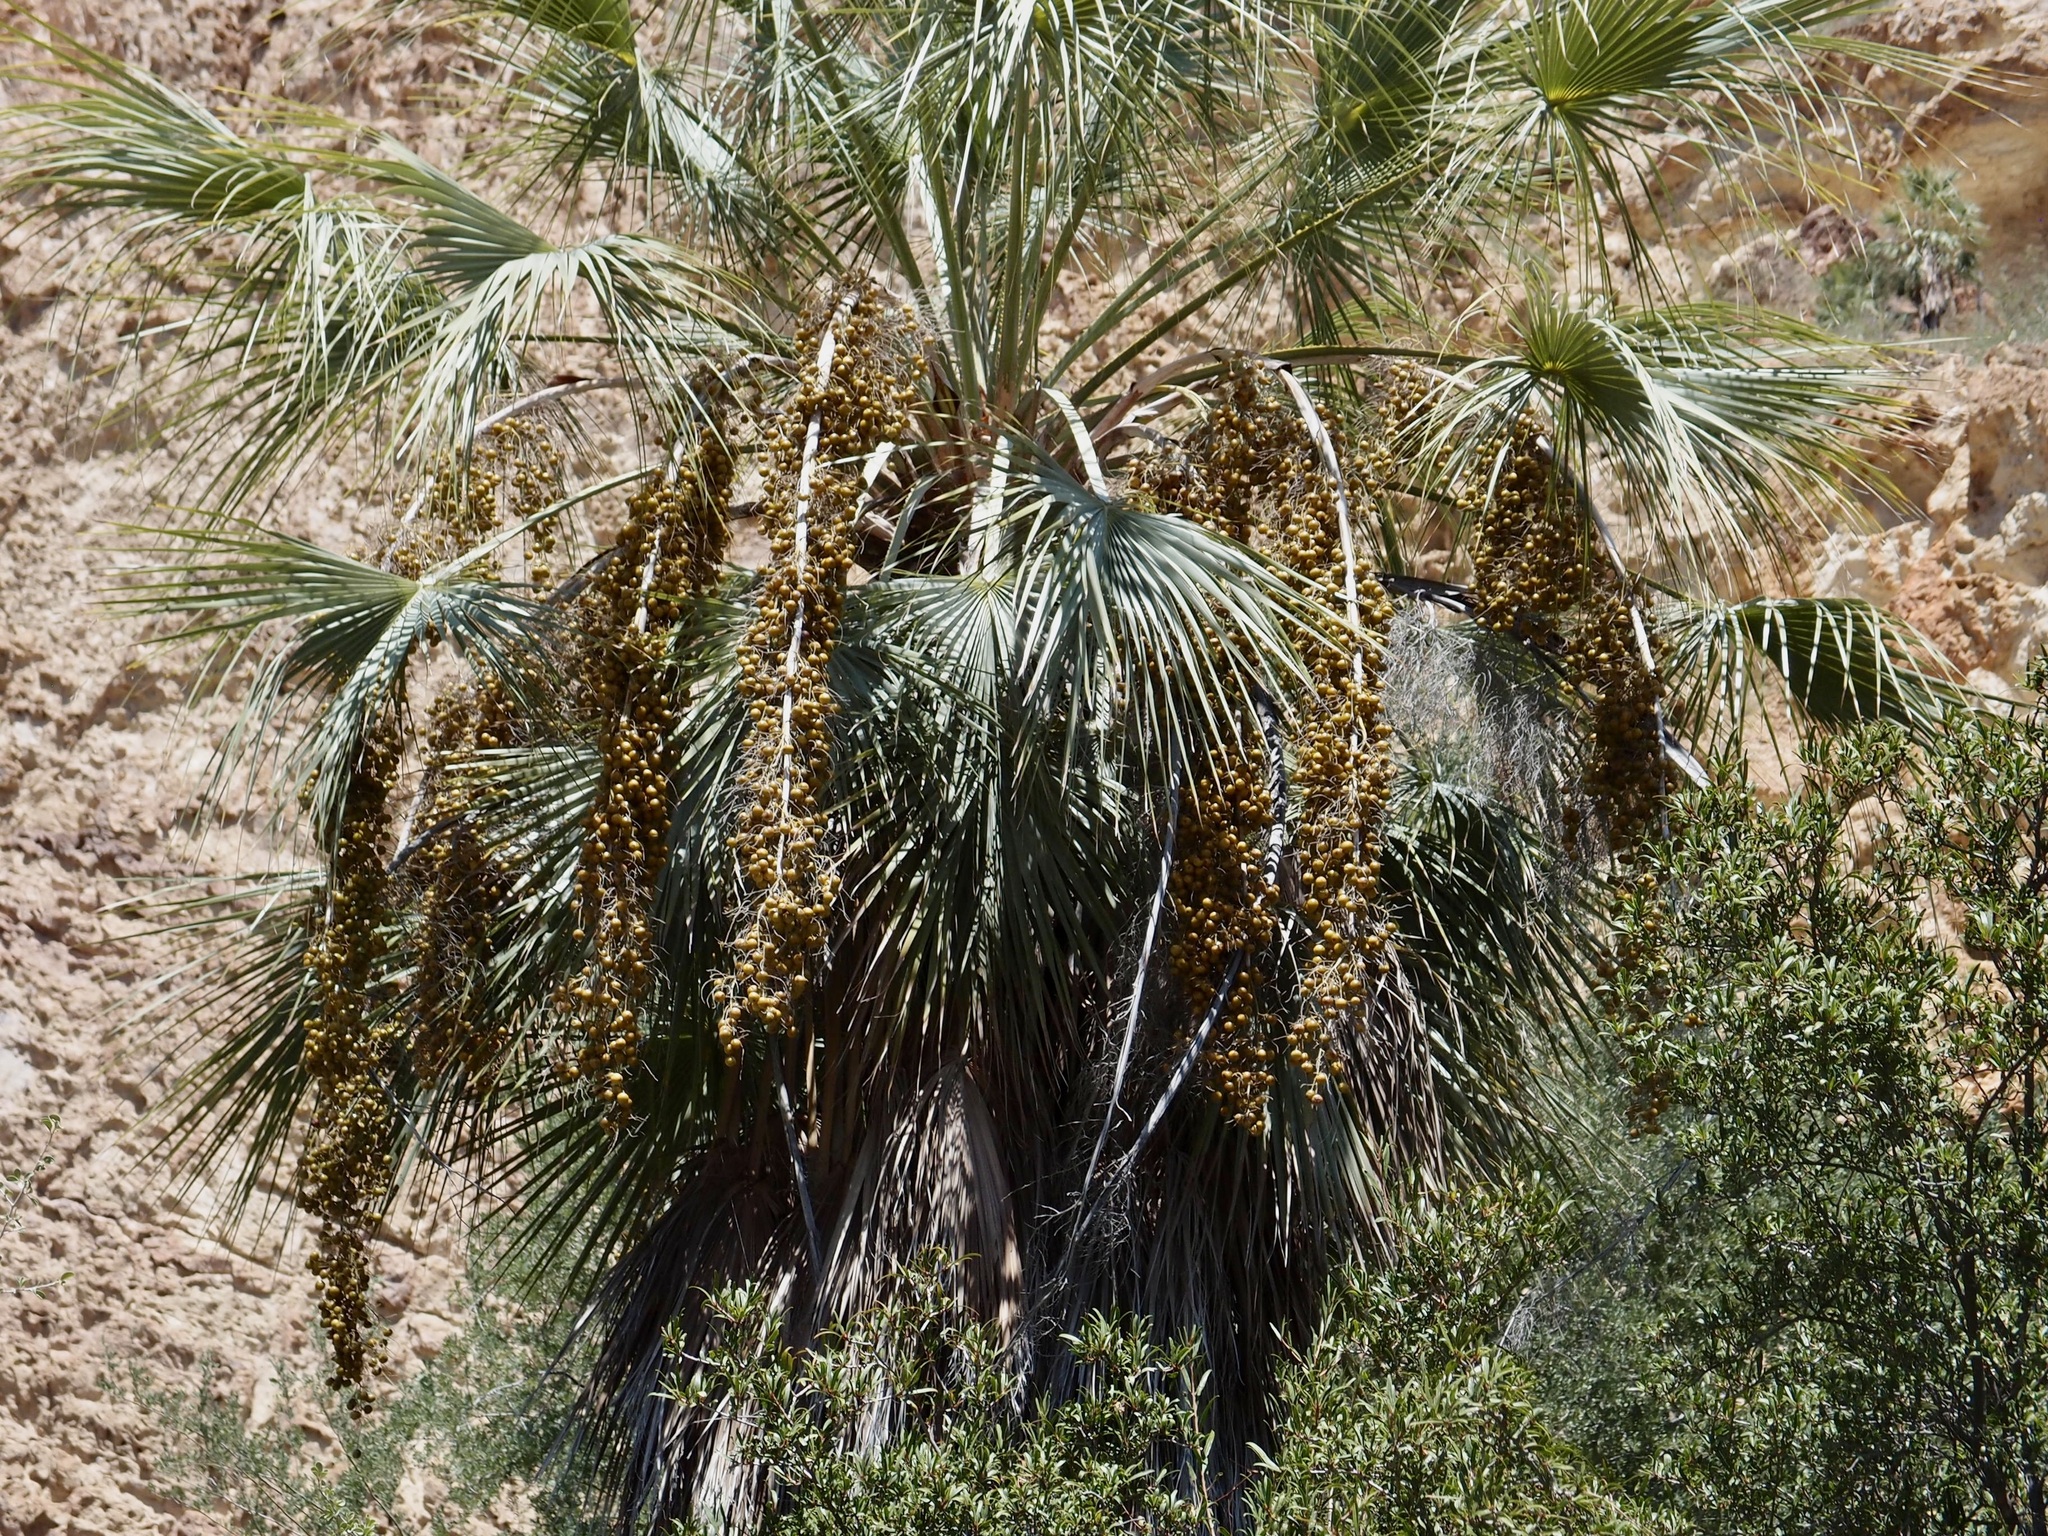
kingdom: Plantae
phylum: Tracheophyta
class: Liliopsida
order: Arecales
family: Arecaceae
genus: Brahea
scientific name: Brahea brandegeei
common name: San jose hesper palm
